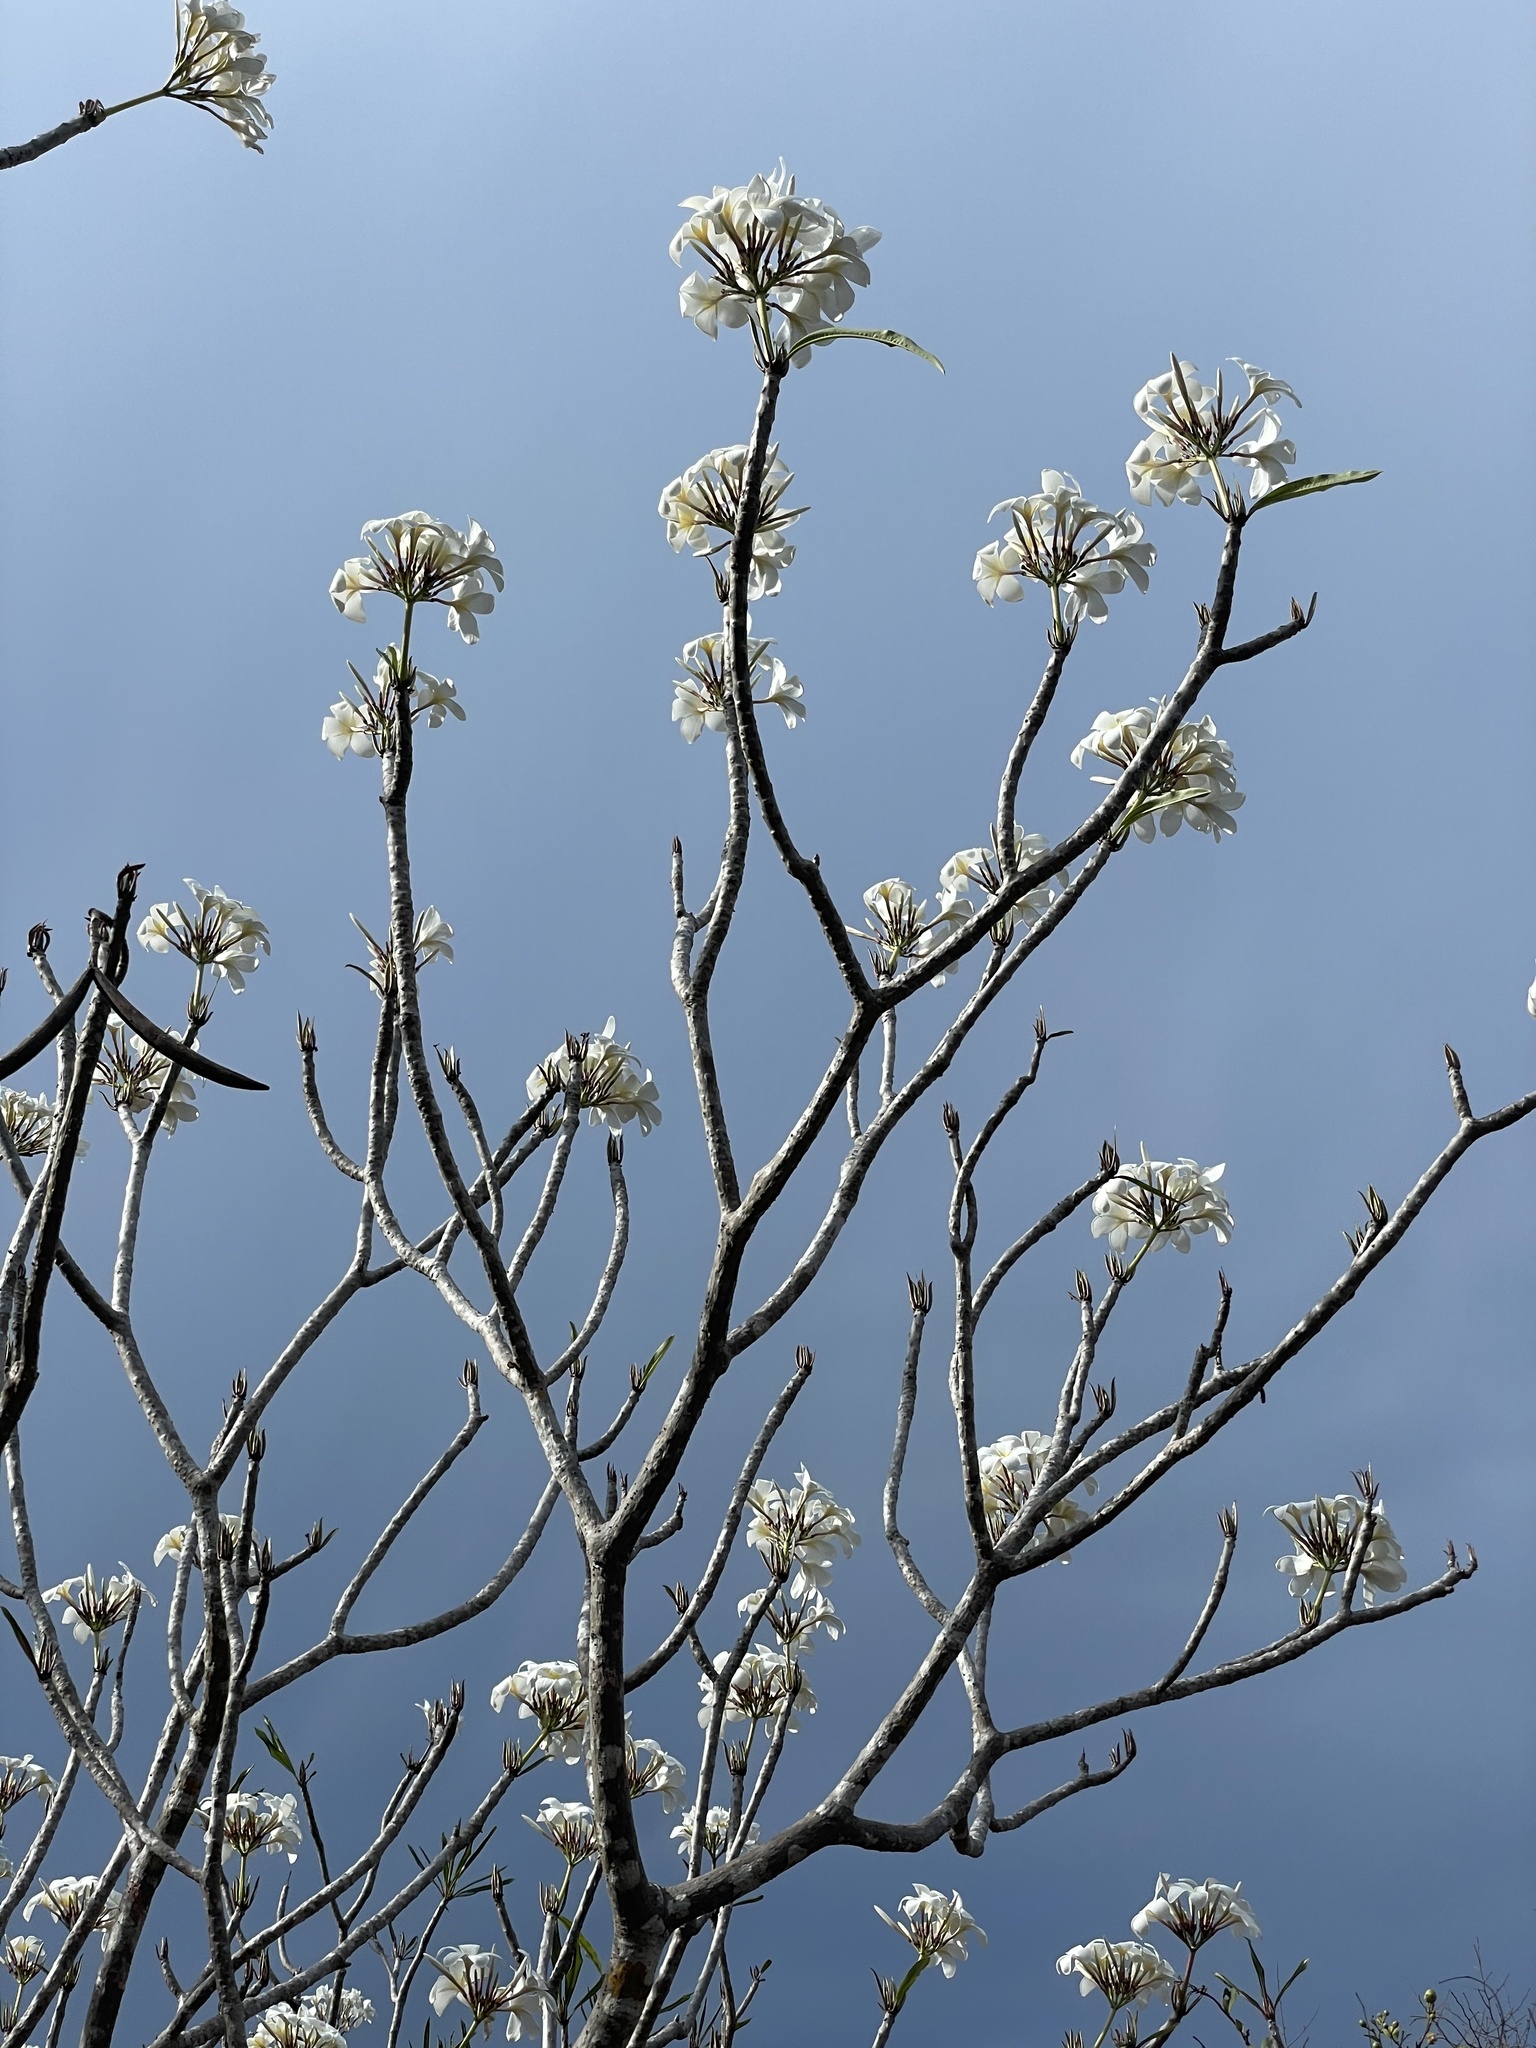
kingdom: Plantae
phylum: Tracheophyta
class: Magnoliopsida
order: Gentianales
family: Apocynaceae
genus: Plumeria
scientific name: Plumeria rubra
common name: Pagoda-tree
